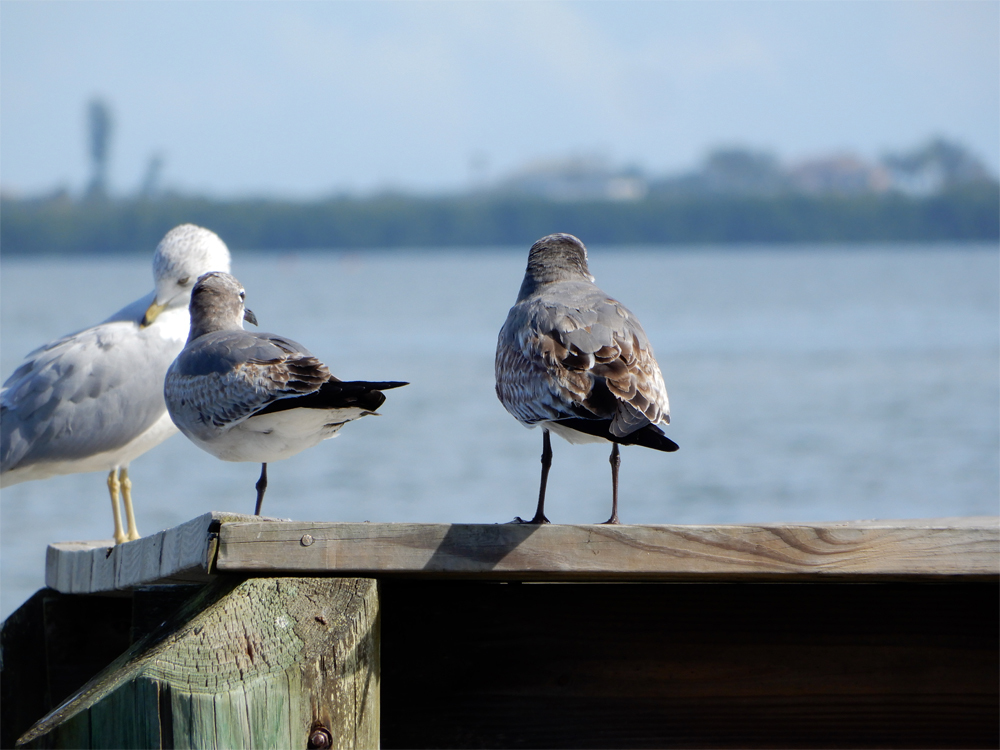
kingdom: Animalia
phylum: Chordata
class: Aves
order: Charadriiformes
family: Laridae
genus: Leucophaeus
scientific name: Leucophaeus atricilla
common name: Laughing gull
